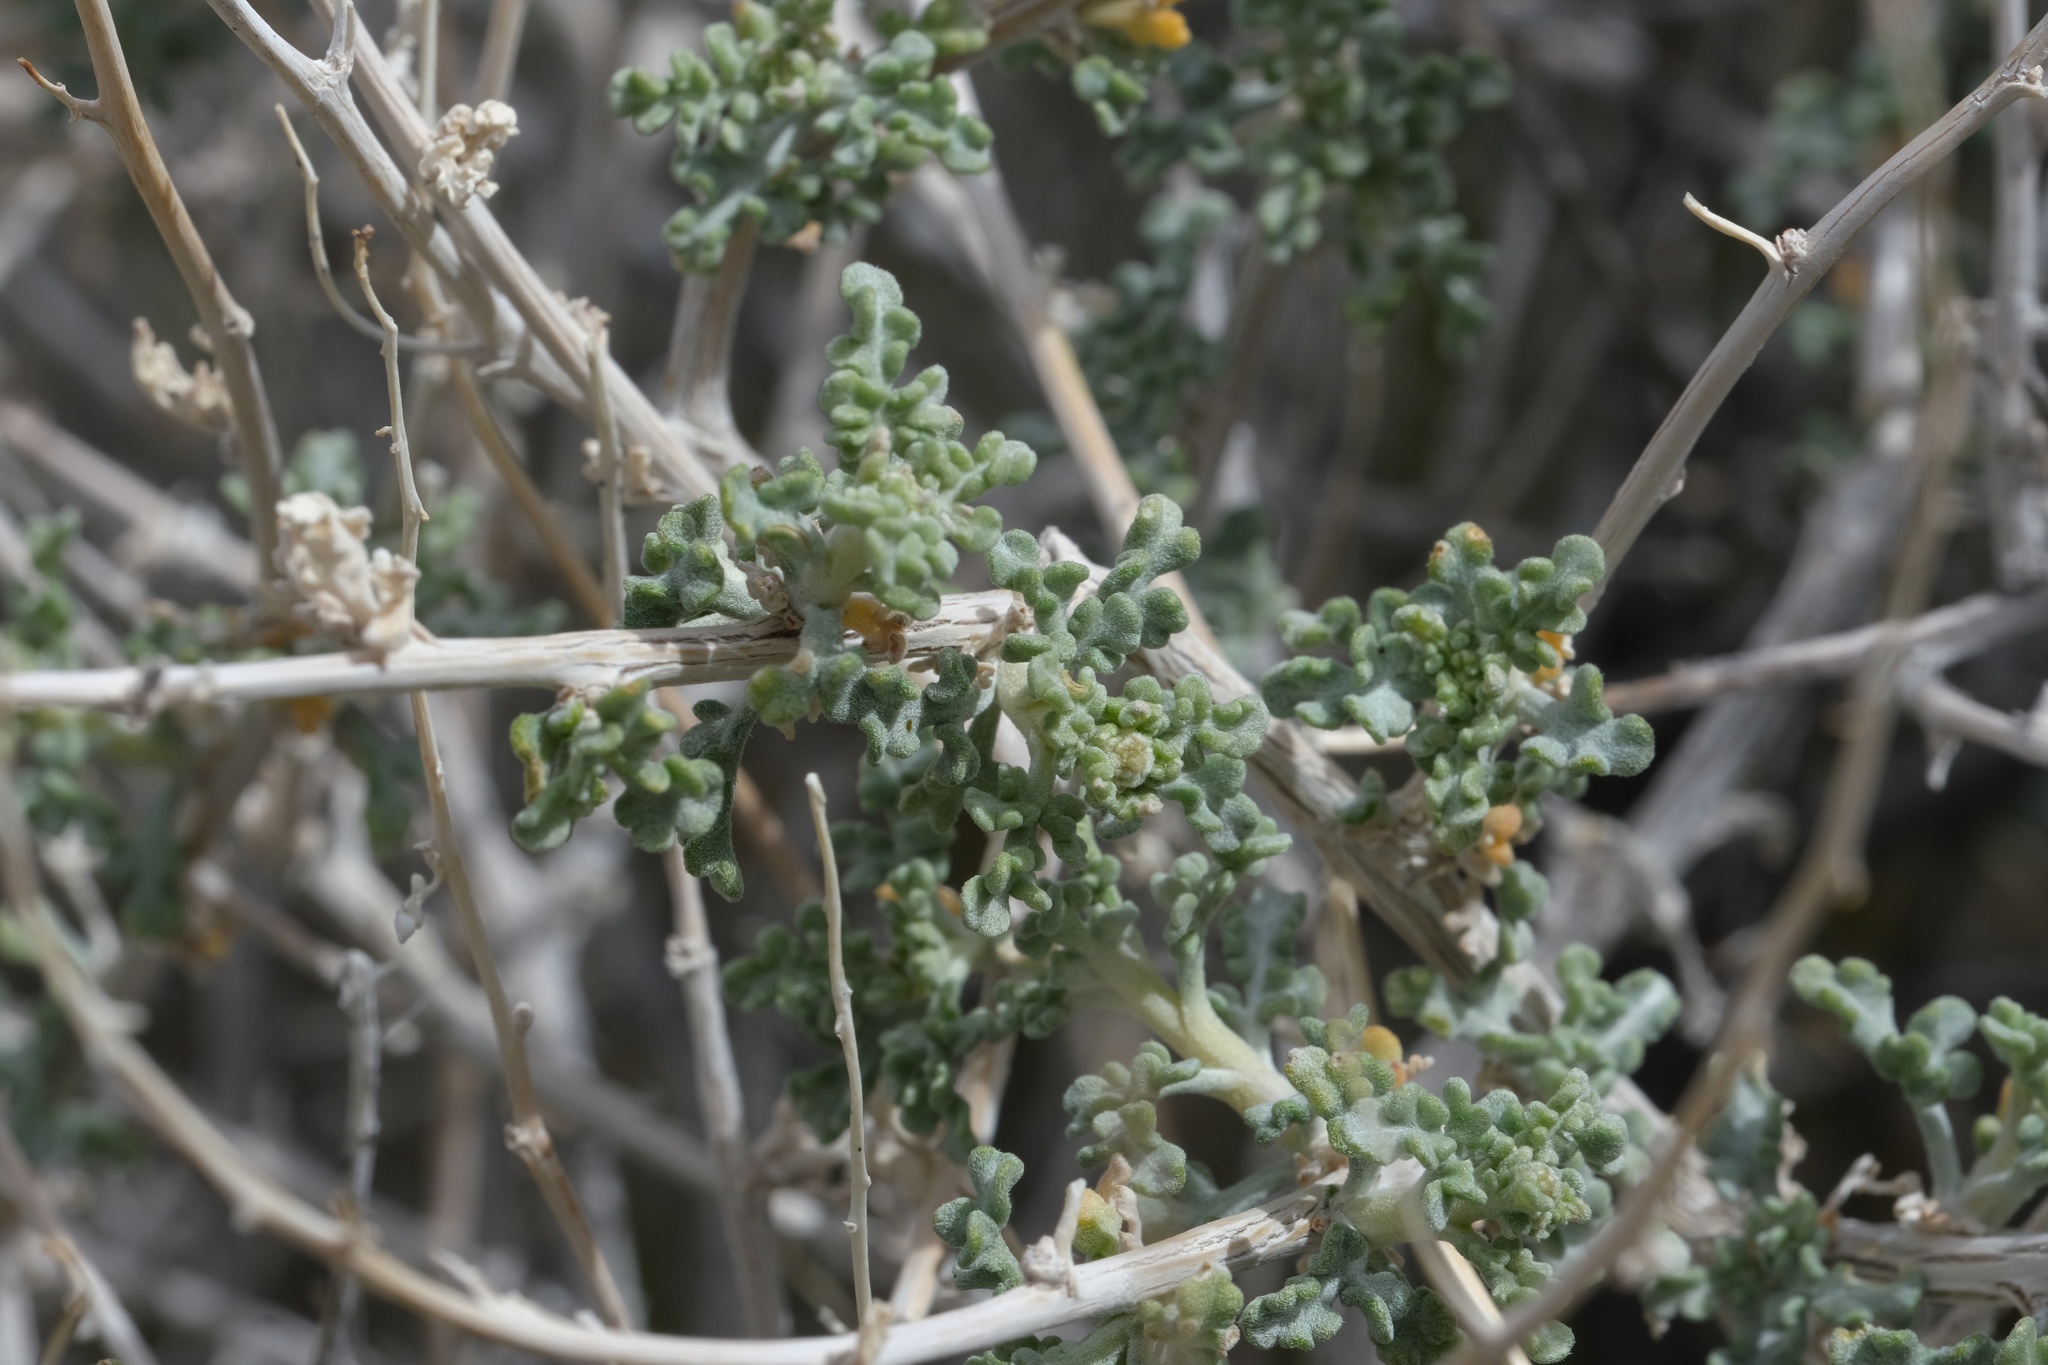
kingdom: Plantae
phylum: Tracheophyta
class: Magnoliopsida
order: Asterales
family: Asteraceae
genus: Ambrosia
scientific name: Ambrosia dumosa
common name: Bur-sage
